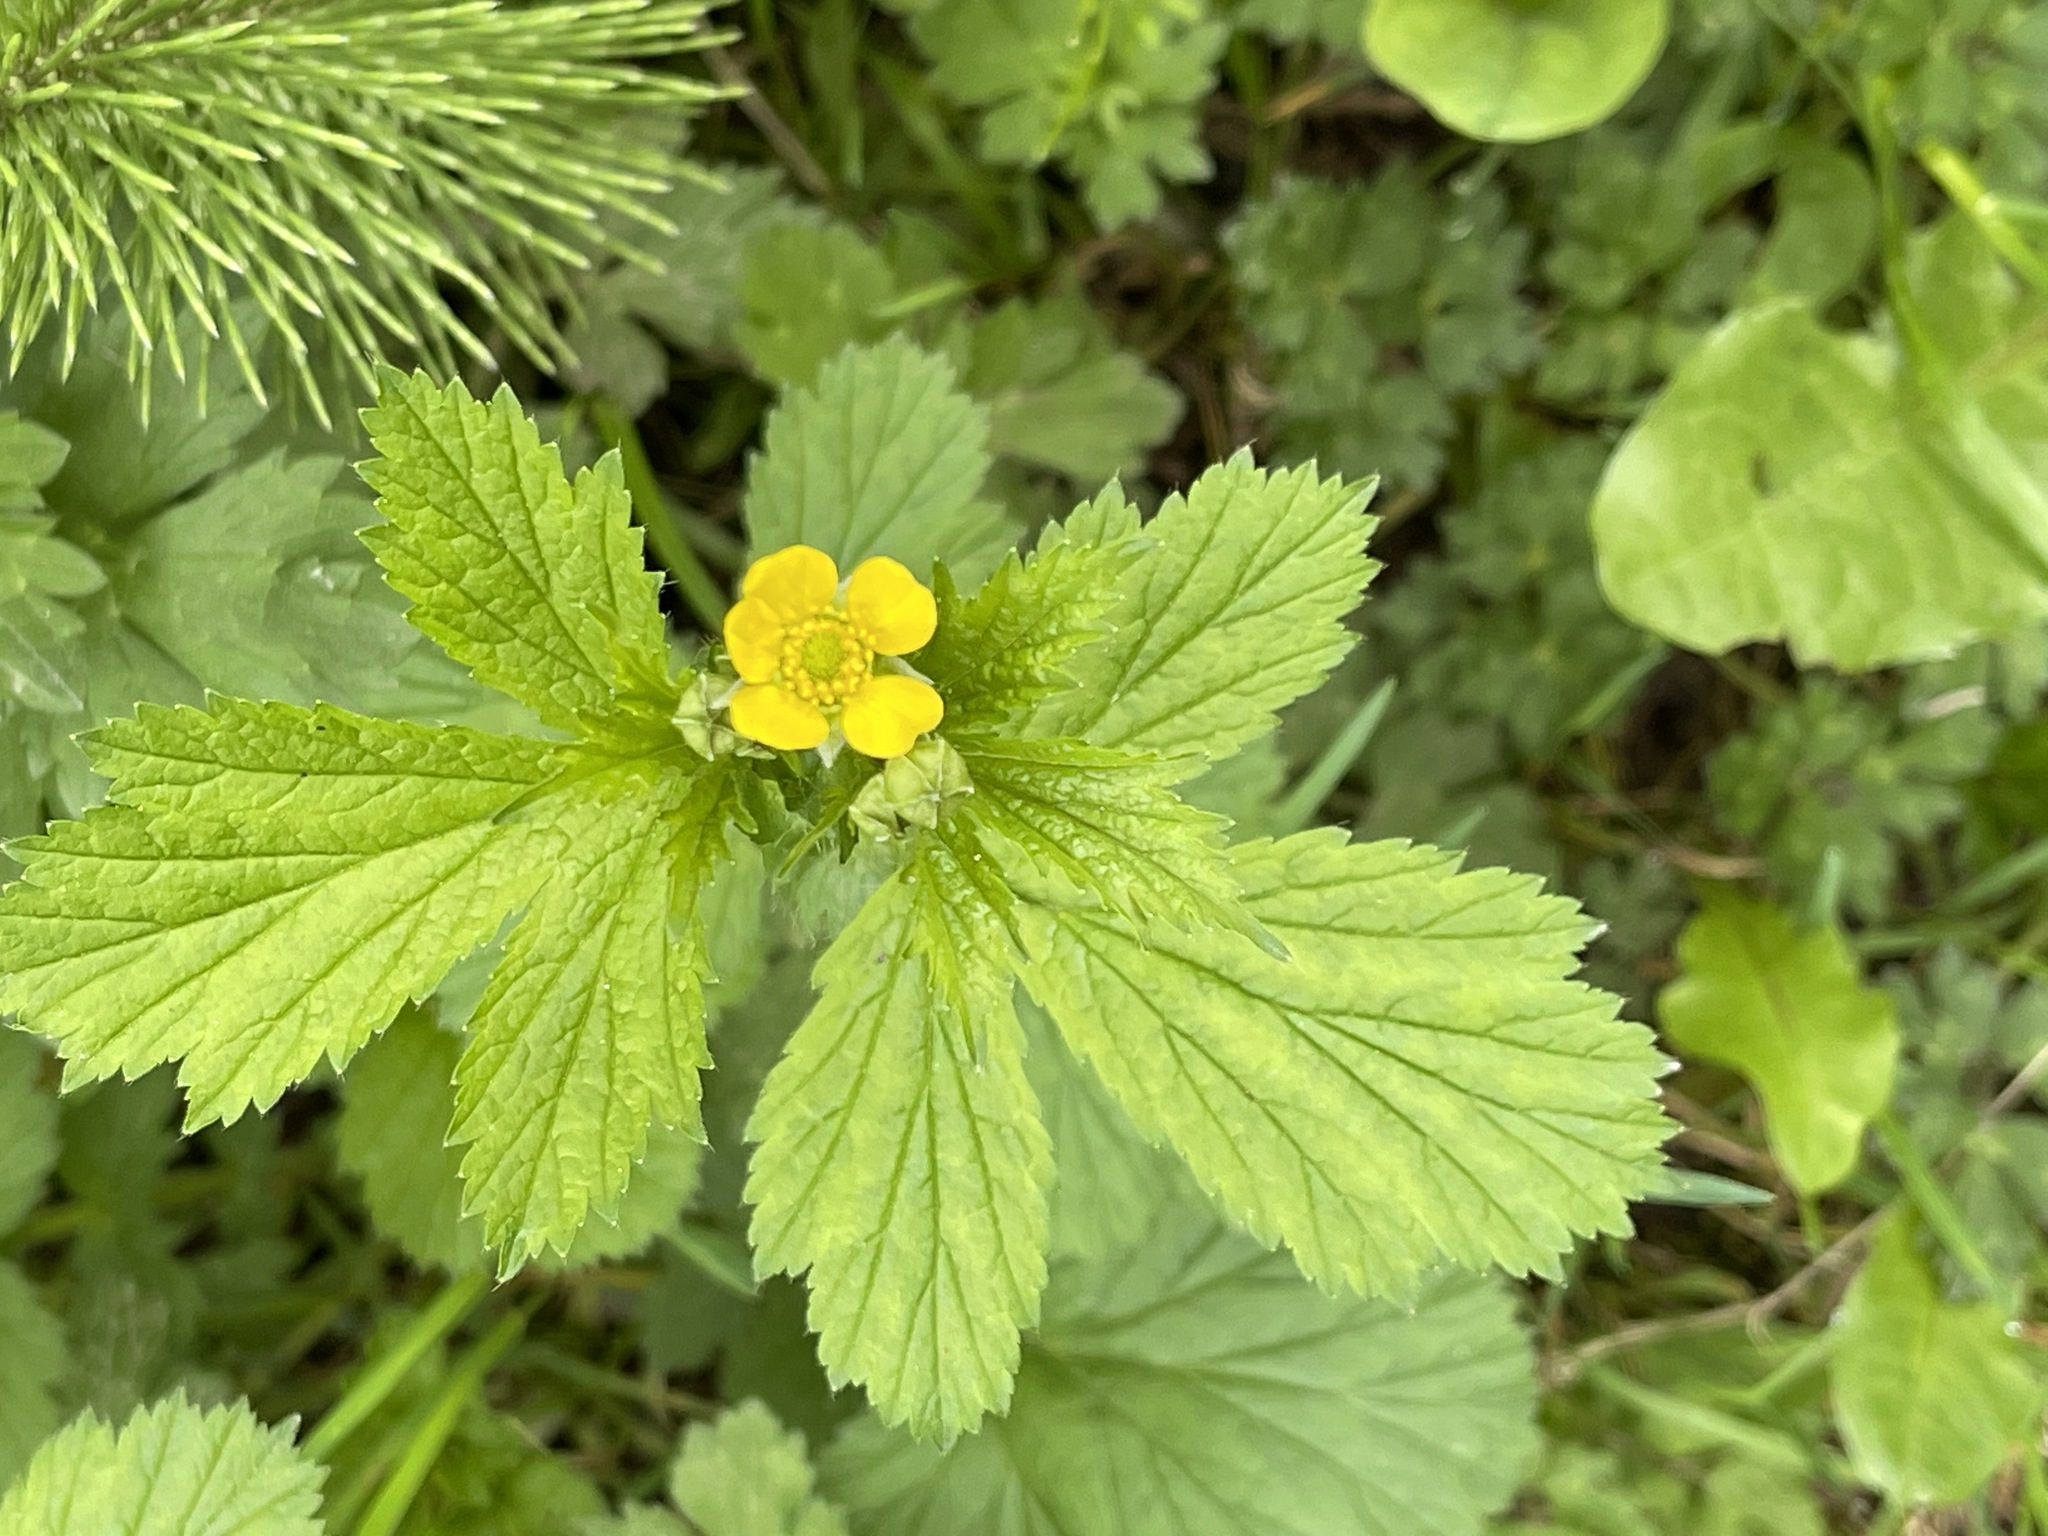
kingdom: Plantae
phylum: Tracheophyta
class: Magnoliopsida
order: Rosales
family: Rosaceae
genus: Geum
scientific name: Geum macrophyllum
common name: Large-leaved avens
